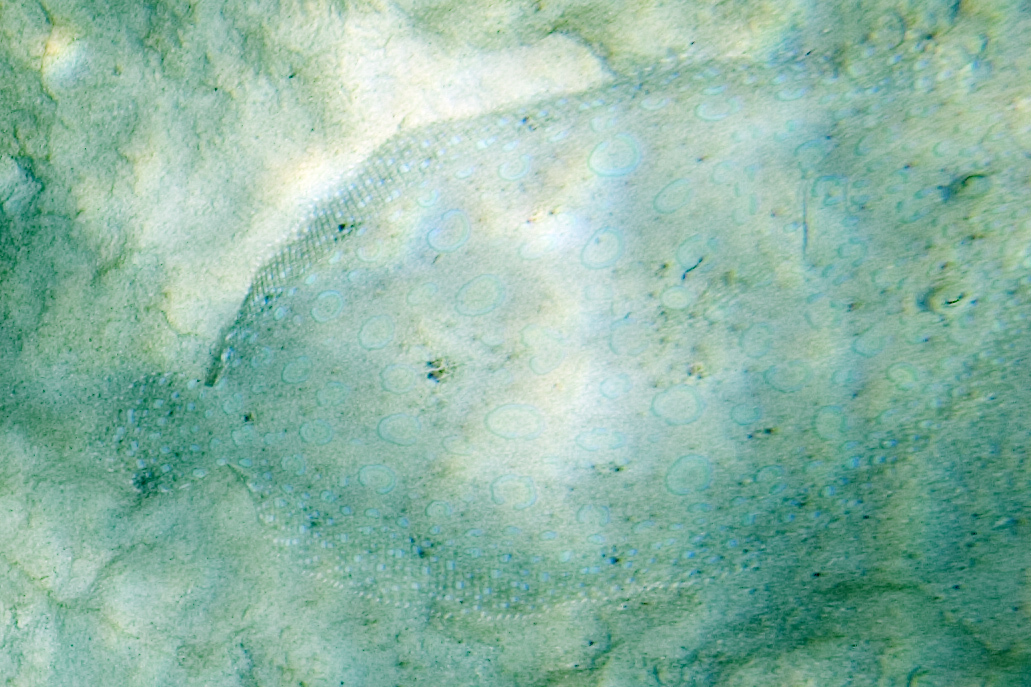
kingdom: Animalia
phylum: Chordata
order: Pleuronectiformes
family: Bothidae
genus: Bothus
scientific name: Bothus lunatus
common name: Peacock flounder
